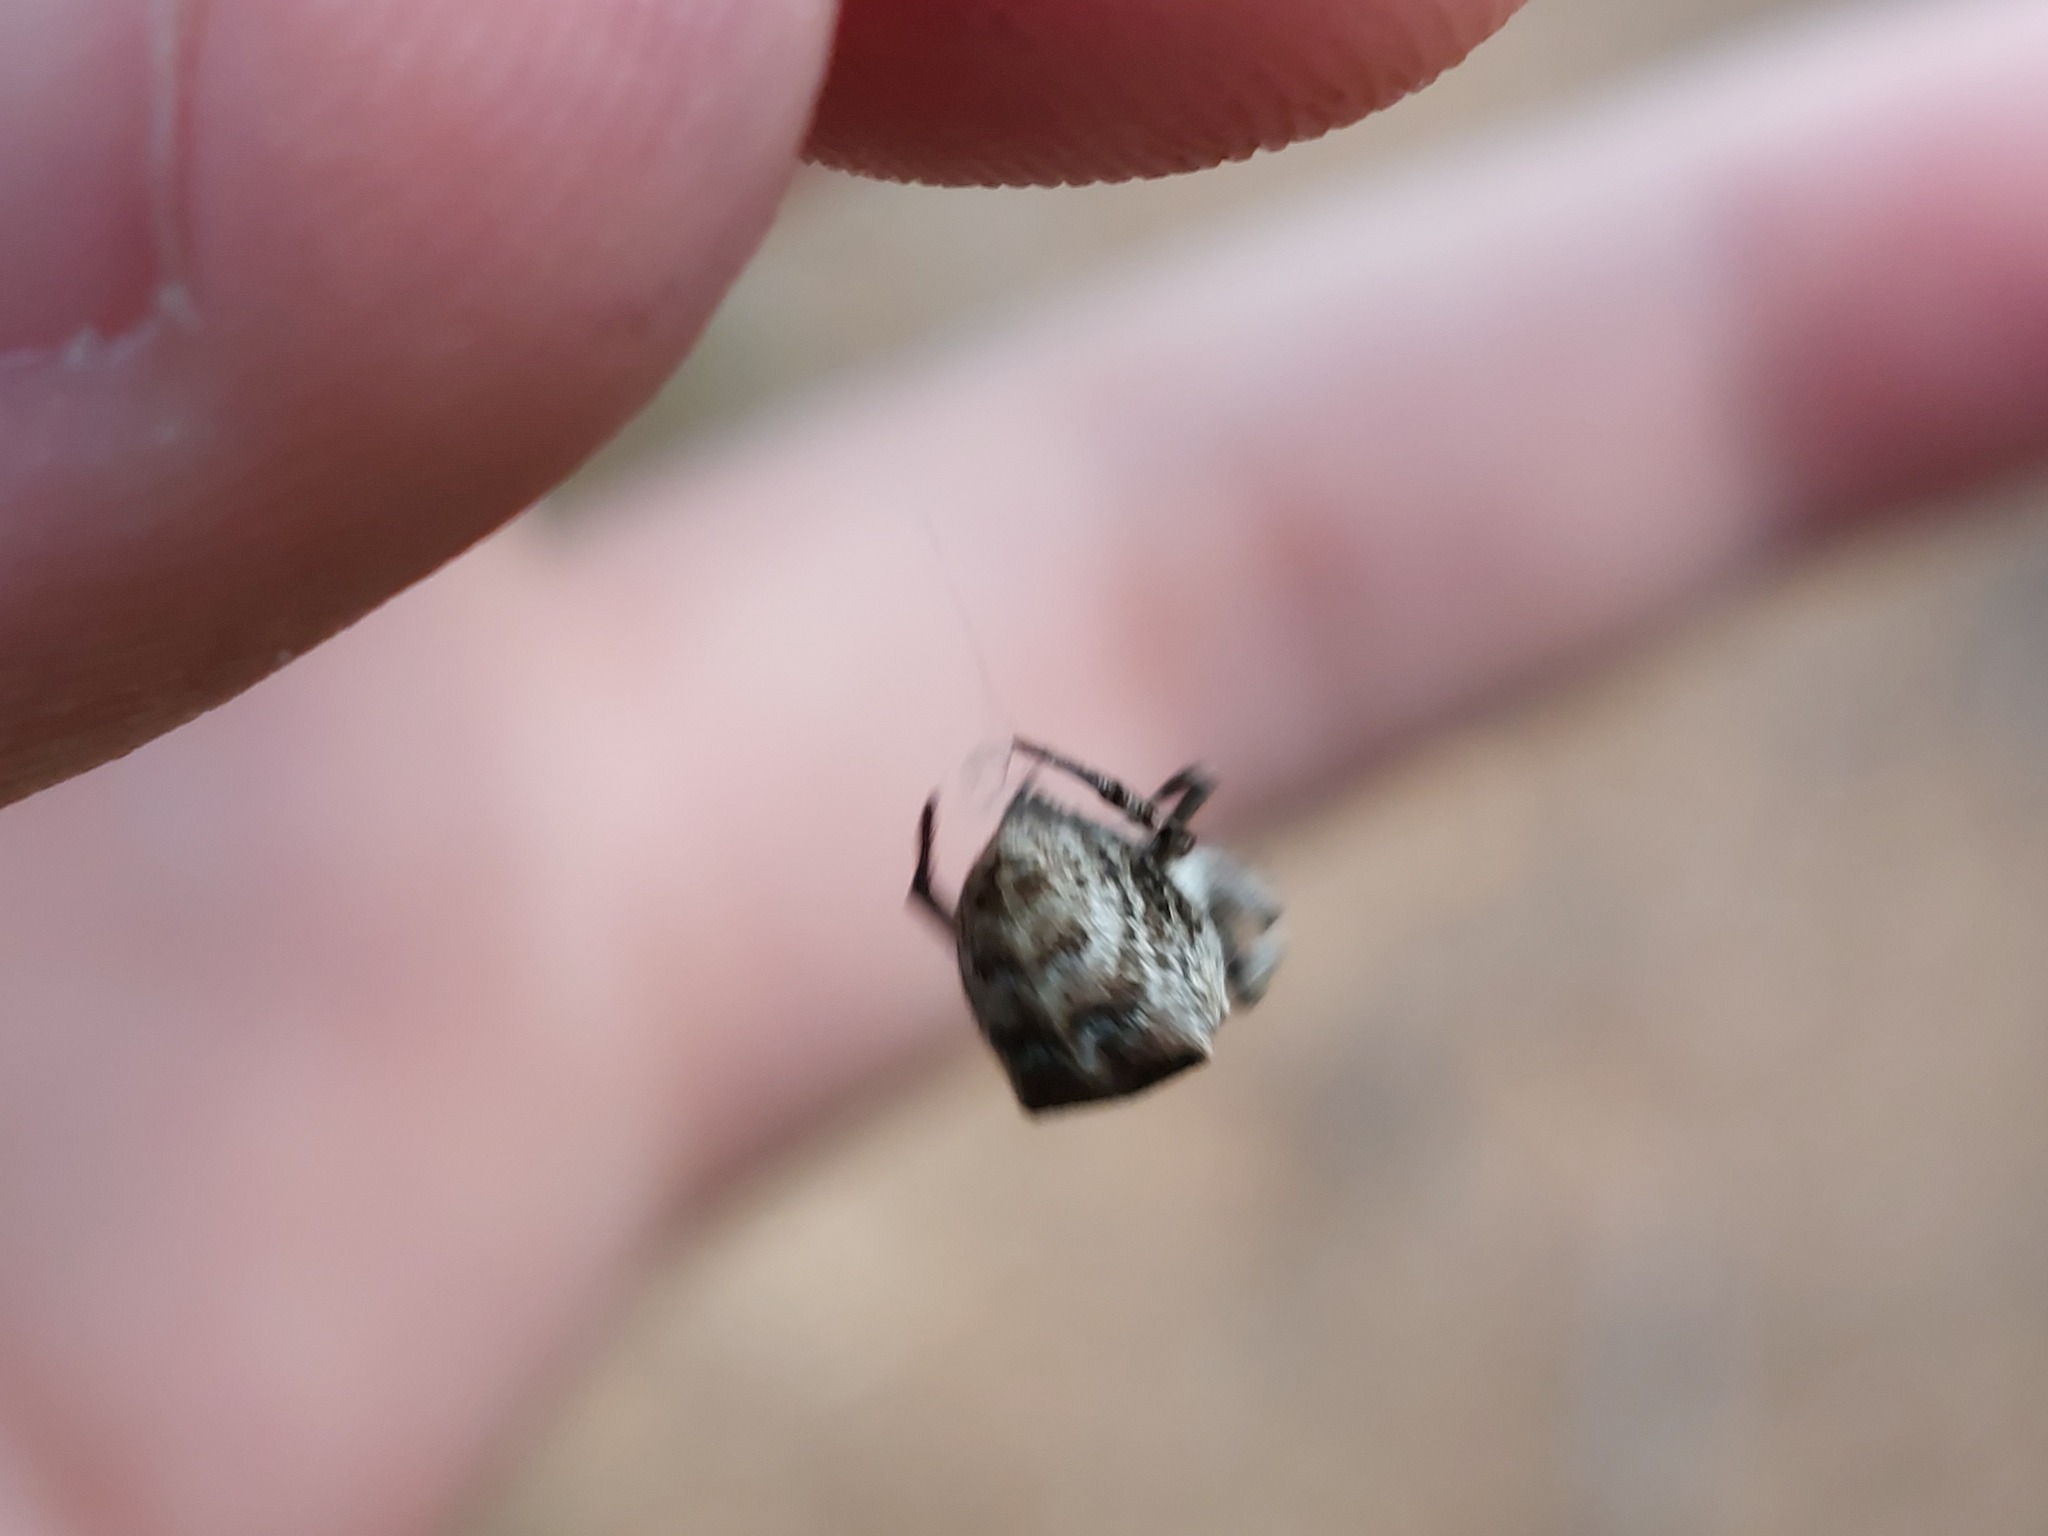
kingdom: Animalia
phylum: Arthropoda
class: Arachnida
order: Araneae
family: Uloboridae
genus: Hyptiotes
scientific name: Hyptiotes paradoxus
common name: Triangle spider
